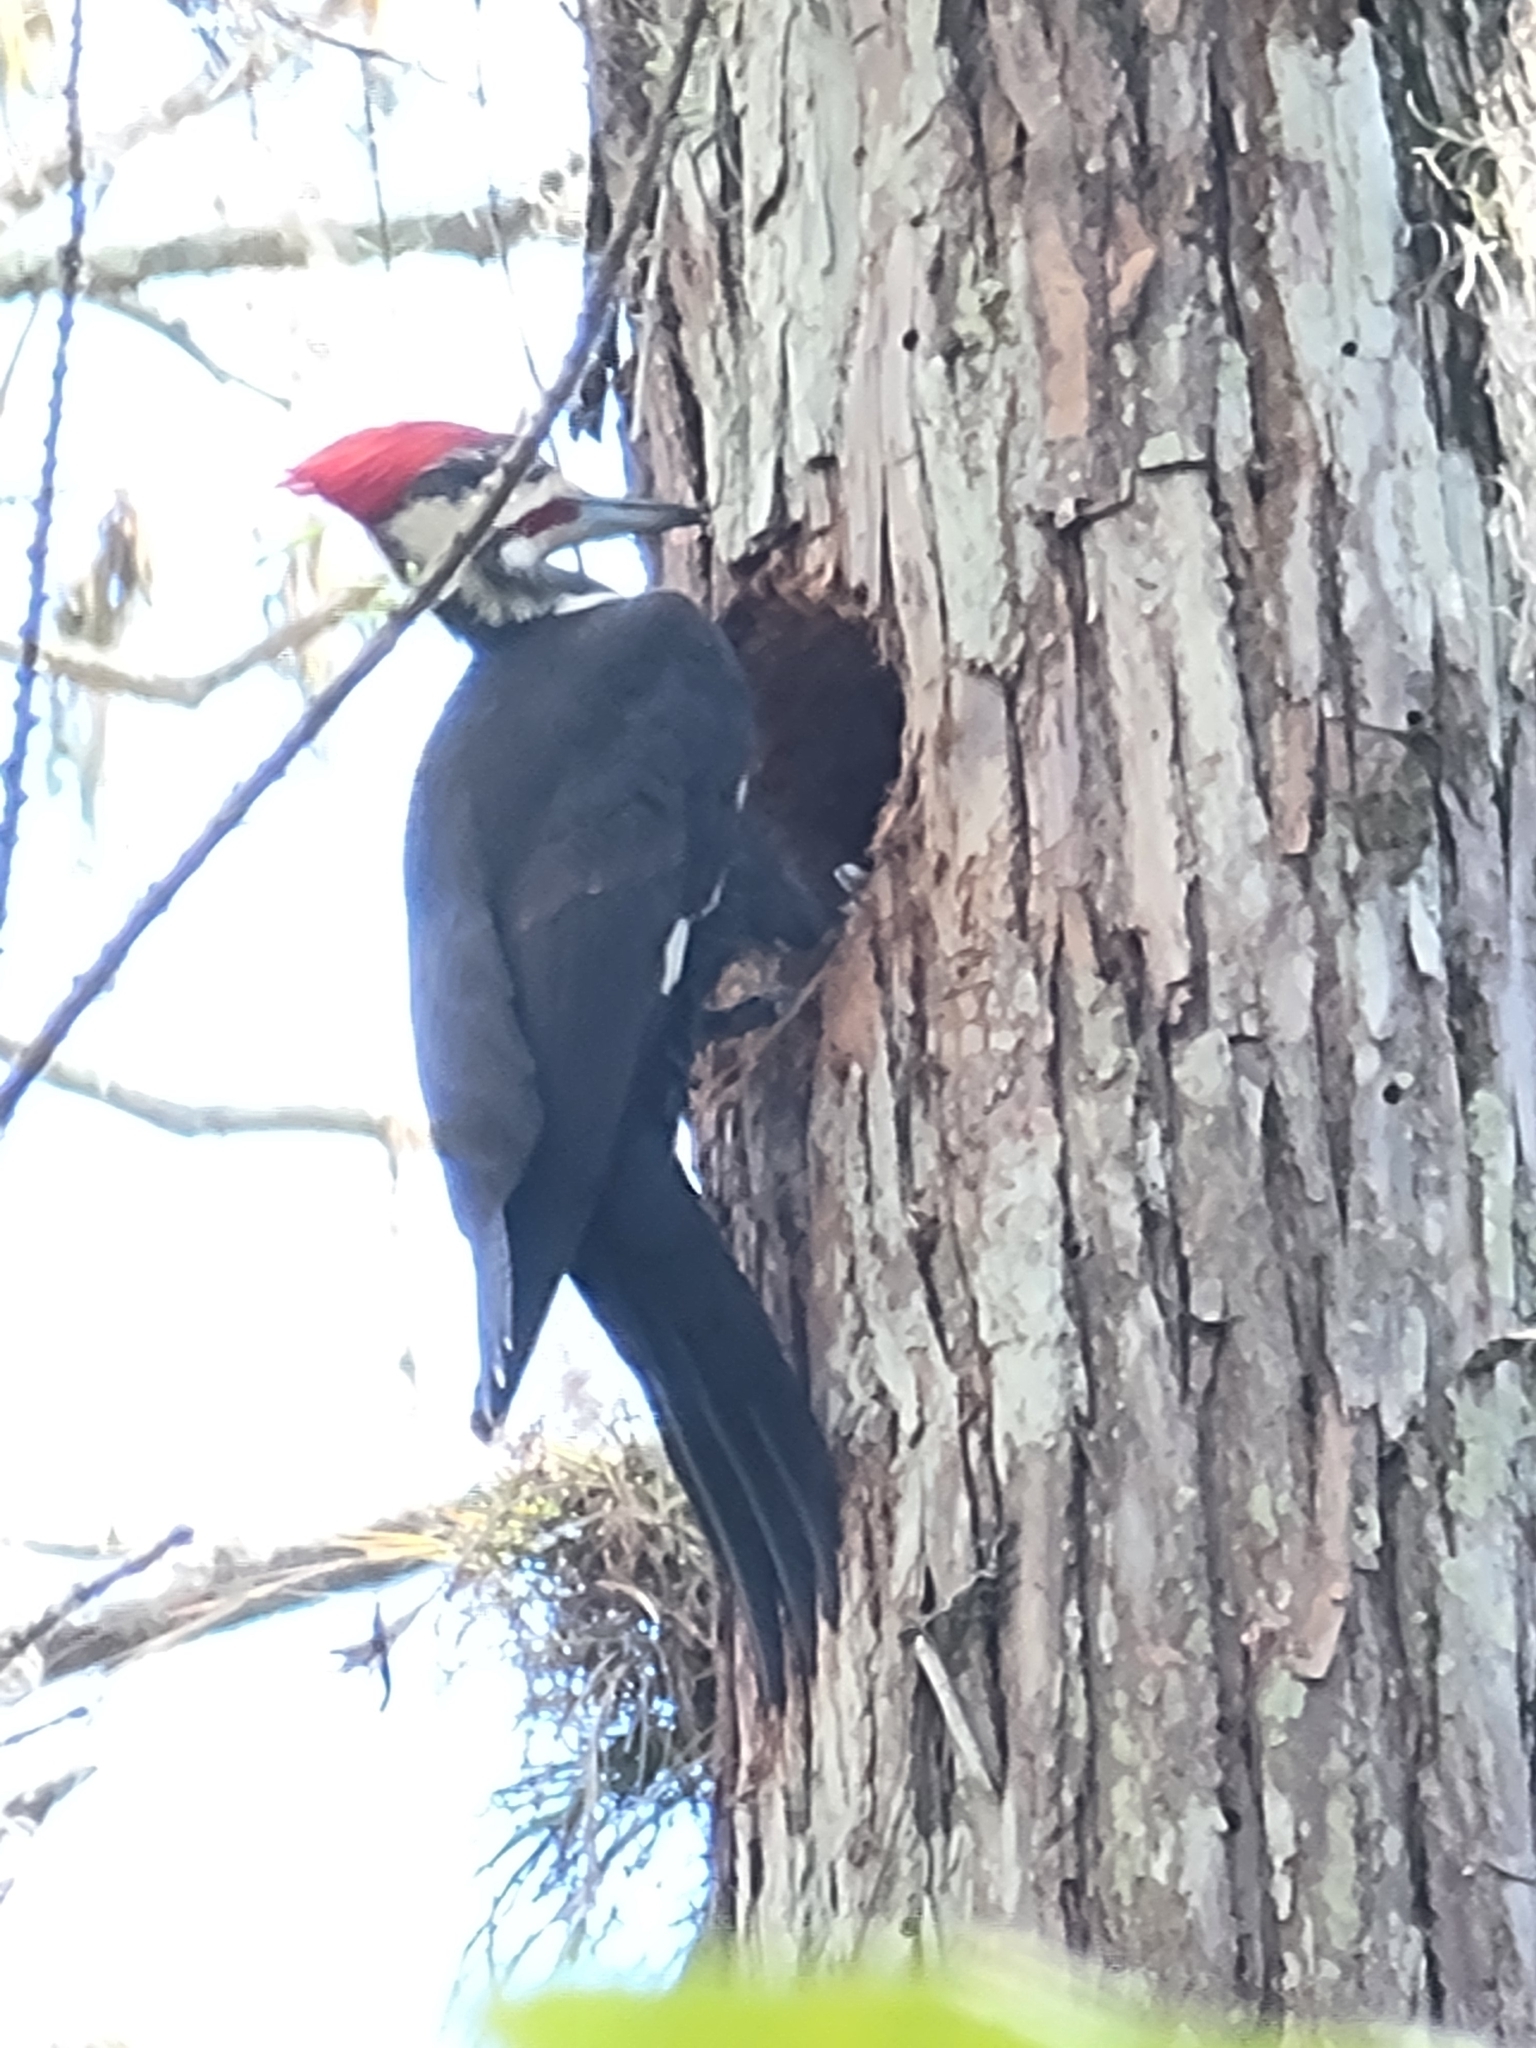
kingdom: Animalia
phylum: Chordata
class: Aves
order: Piciformes
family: Picidae
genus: Dryocopus
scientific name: Dryocopus pileatus
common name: Pileated woodpecker
